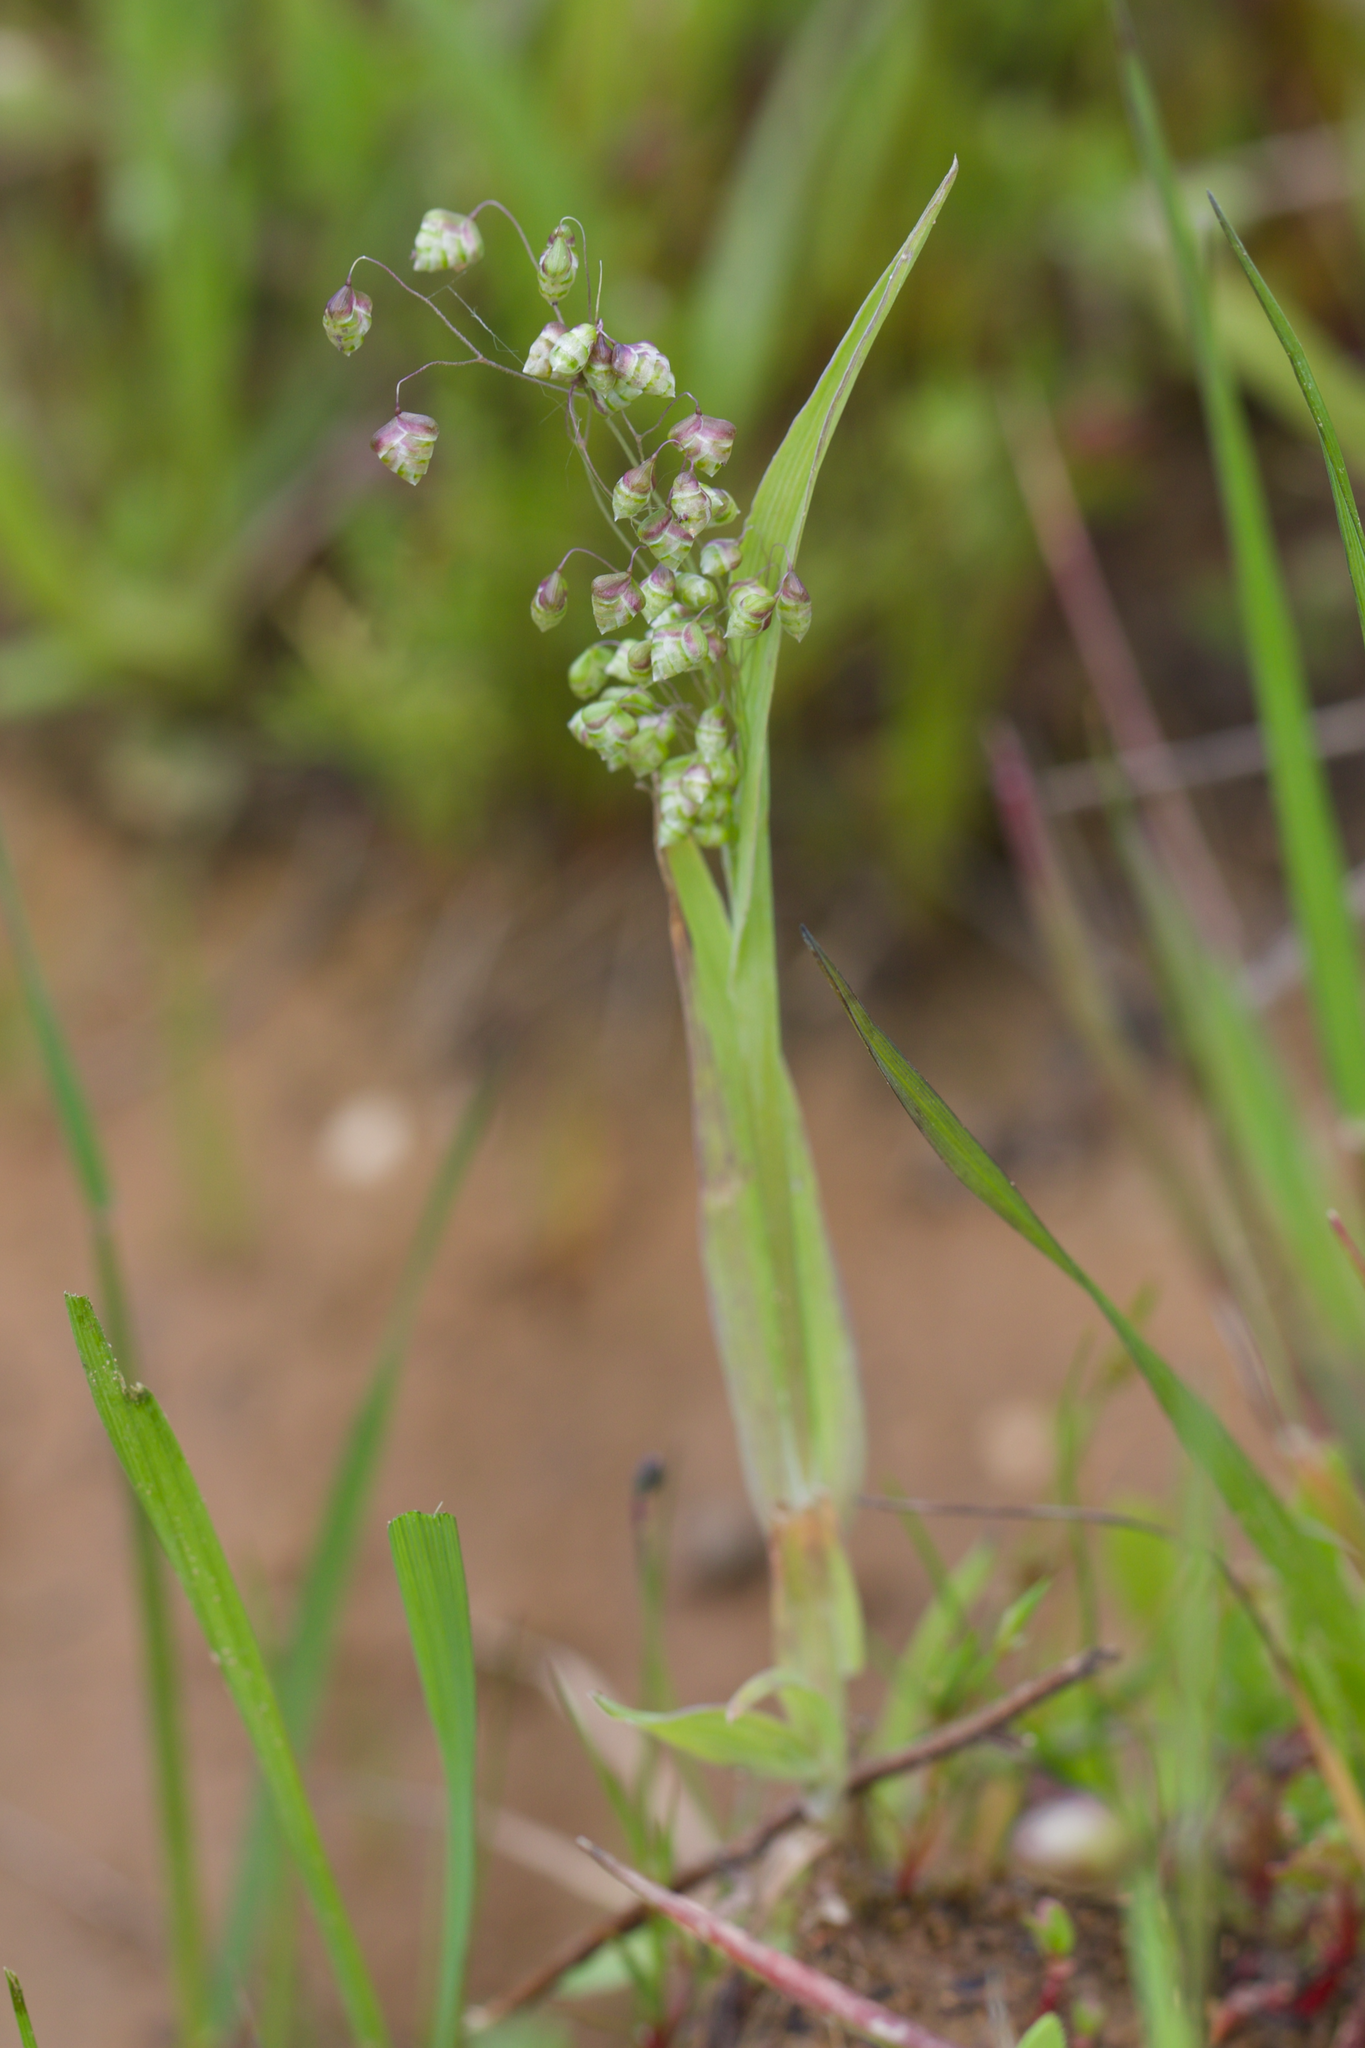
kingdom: Plantae
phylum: Tracheophyta
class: Liliopsida
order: Poales
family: Poaceae
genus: Briza
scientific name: Briza minor
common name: Lesser quaking-grass
